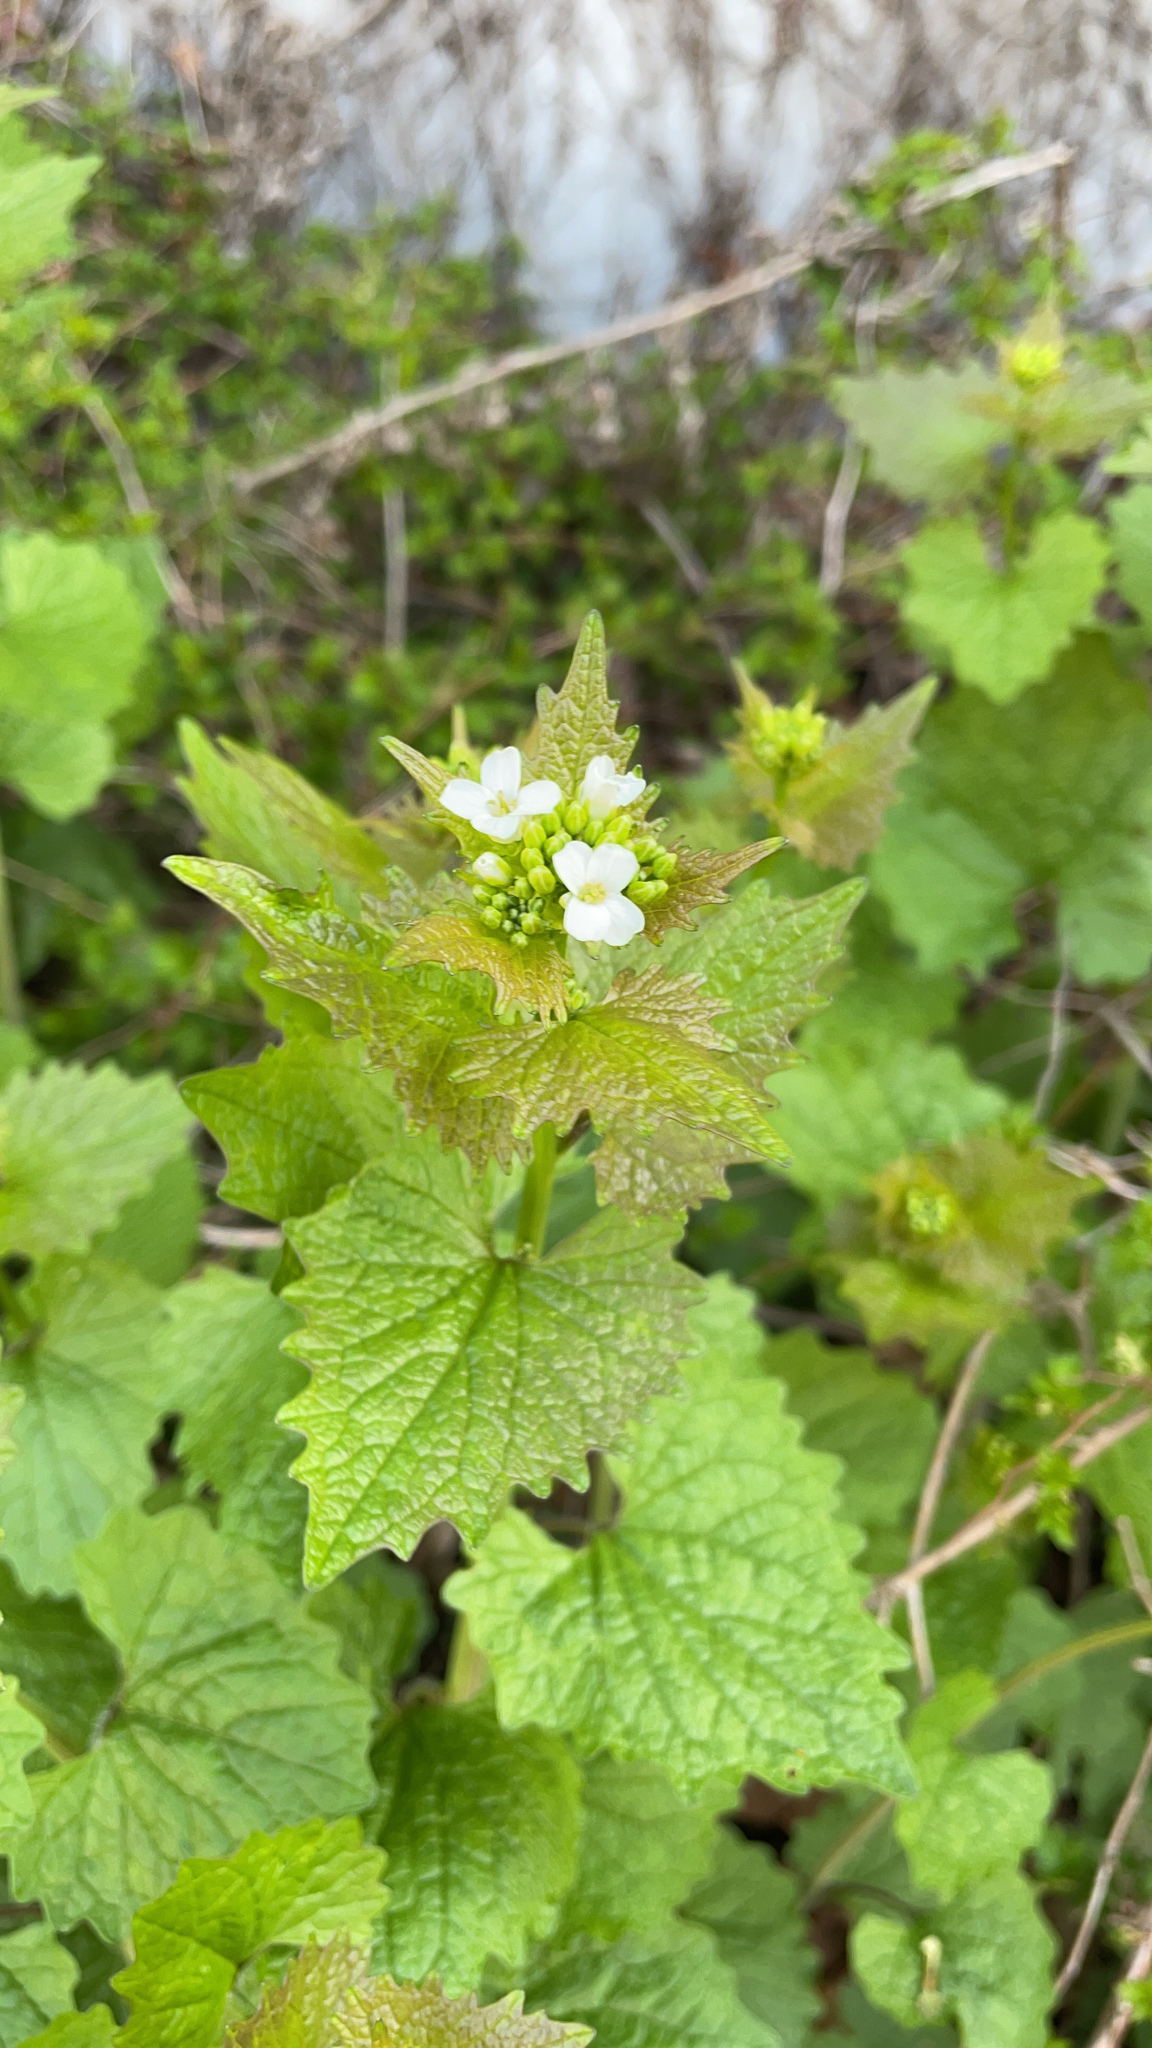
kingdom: Plantae
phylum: Tracheophyta
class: Magnoliopsida
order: Brassicales
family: Brassicaceae
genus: Alliaria
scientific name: Alliaria petiolata
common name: Garlic mustard
